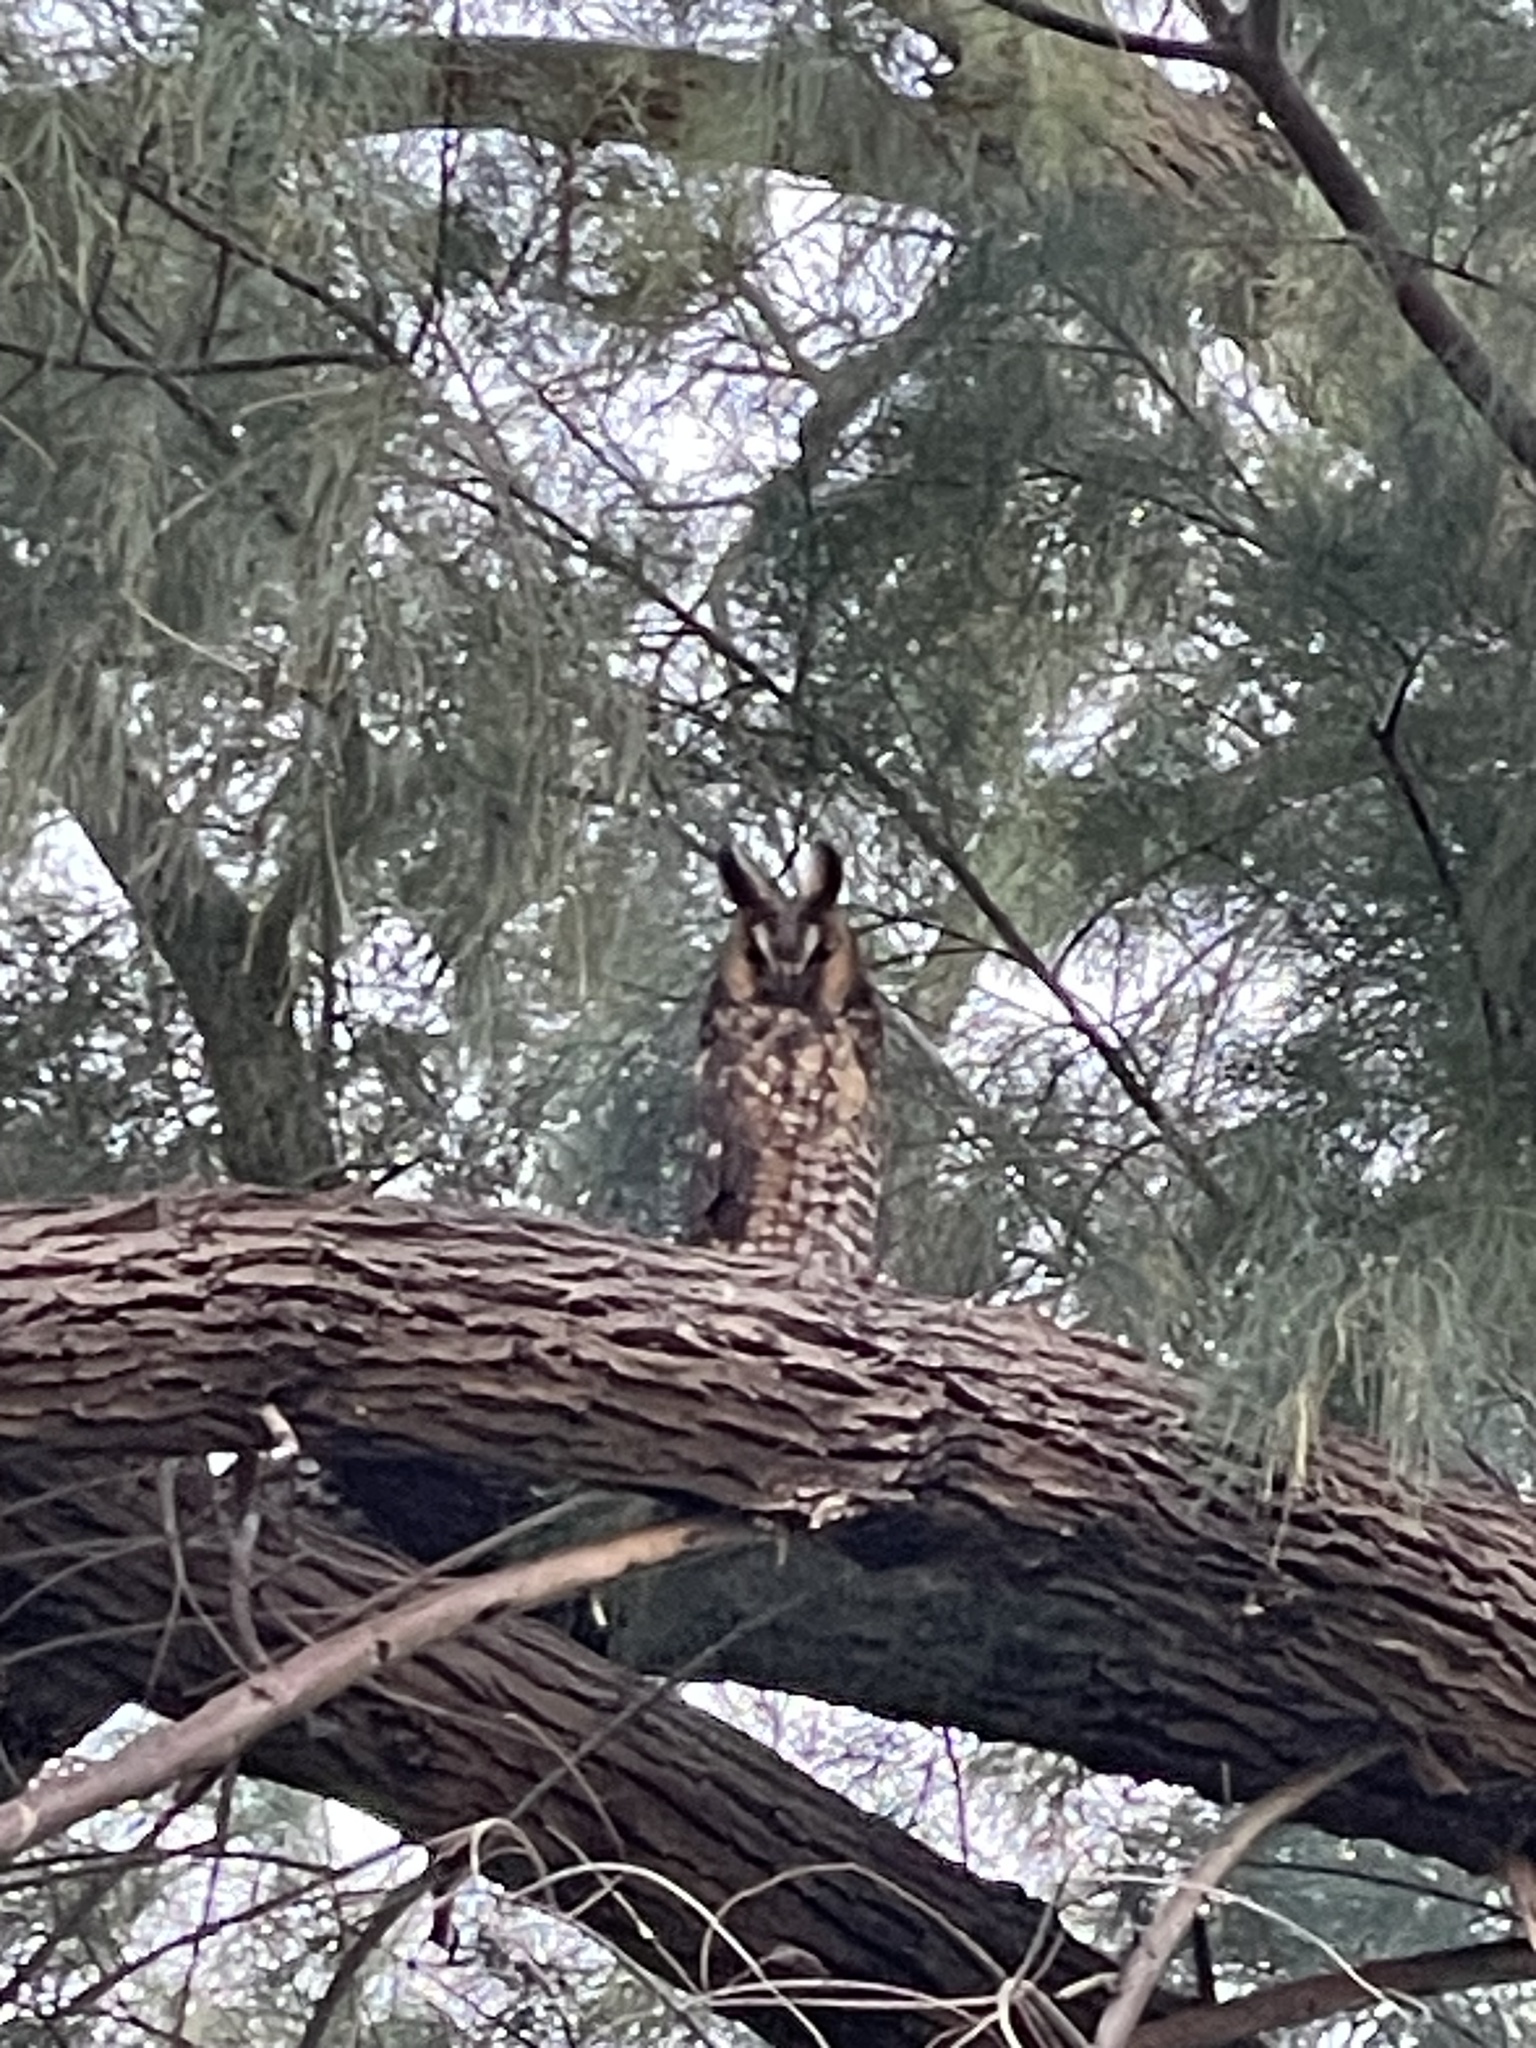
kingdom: Animalia
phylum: Chordata
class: Aves
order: Strigiformes
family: Strigidae
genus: Asio
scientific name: Asio otus
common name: Long-eared owl
